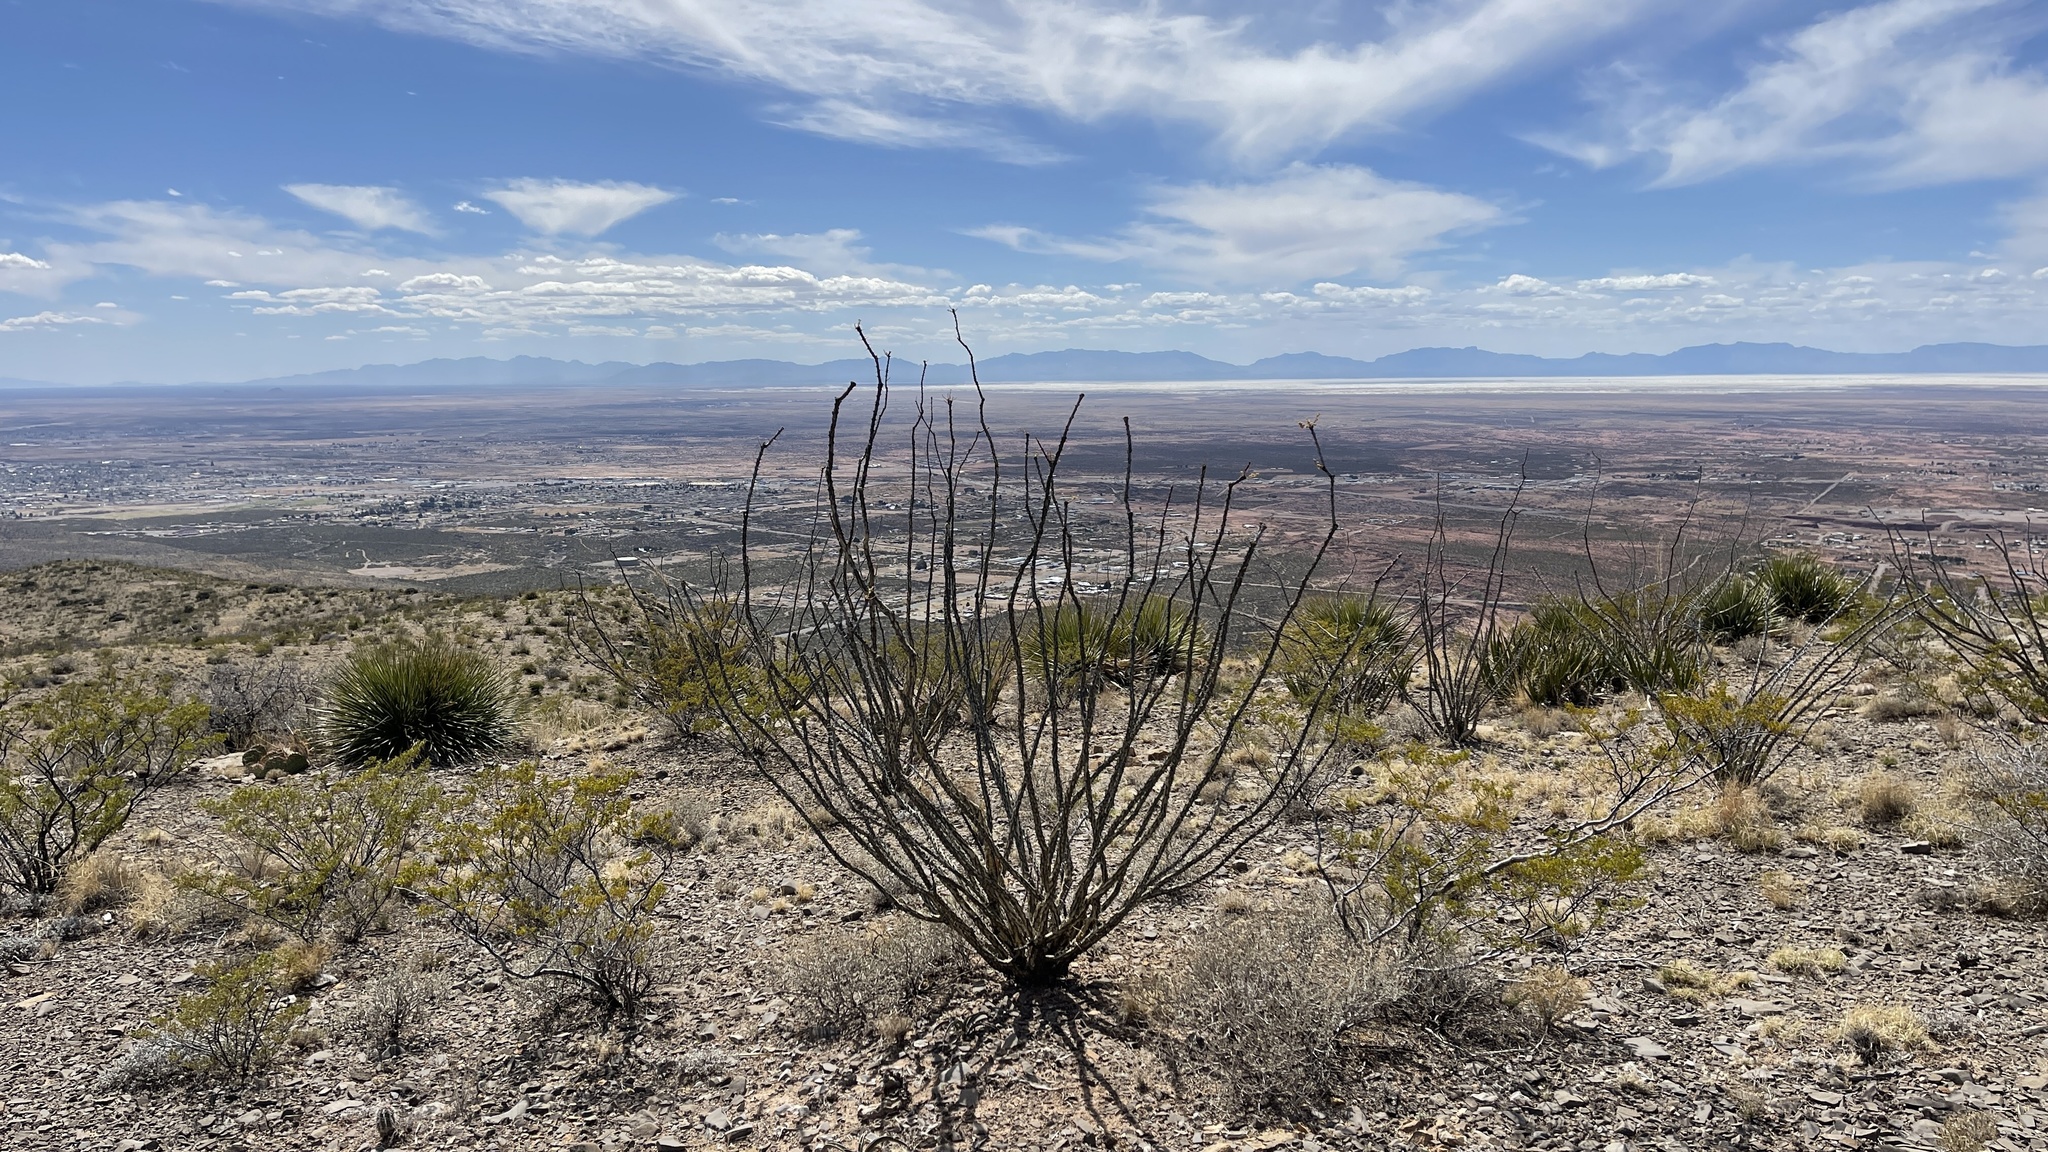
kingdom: Plantae
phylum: Tracheophyta
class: Magnoliopsida
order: Ericales
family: Fouquieriaceae
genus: Fouquieria
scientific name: Fouquieria splendens
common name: Vine-cactus
